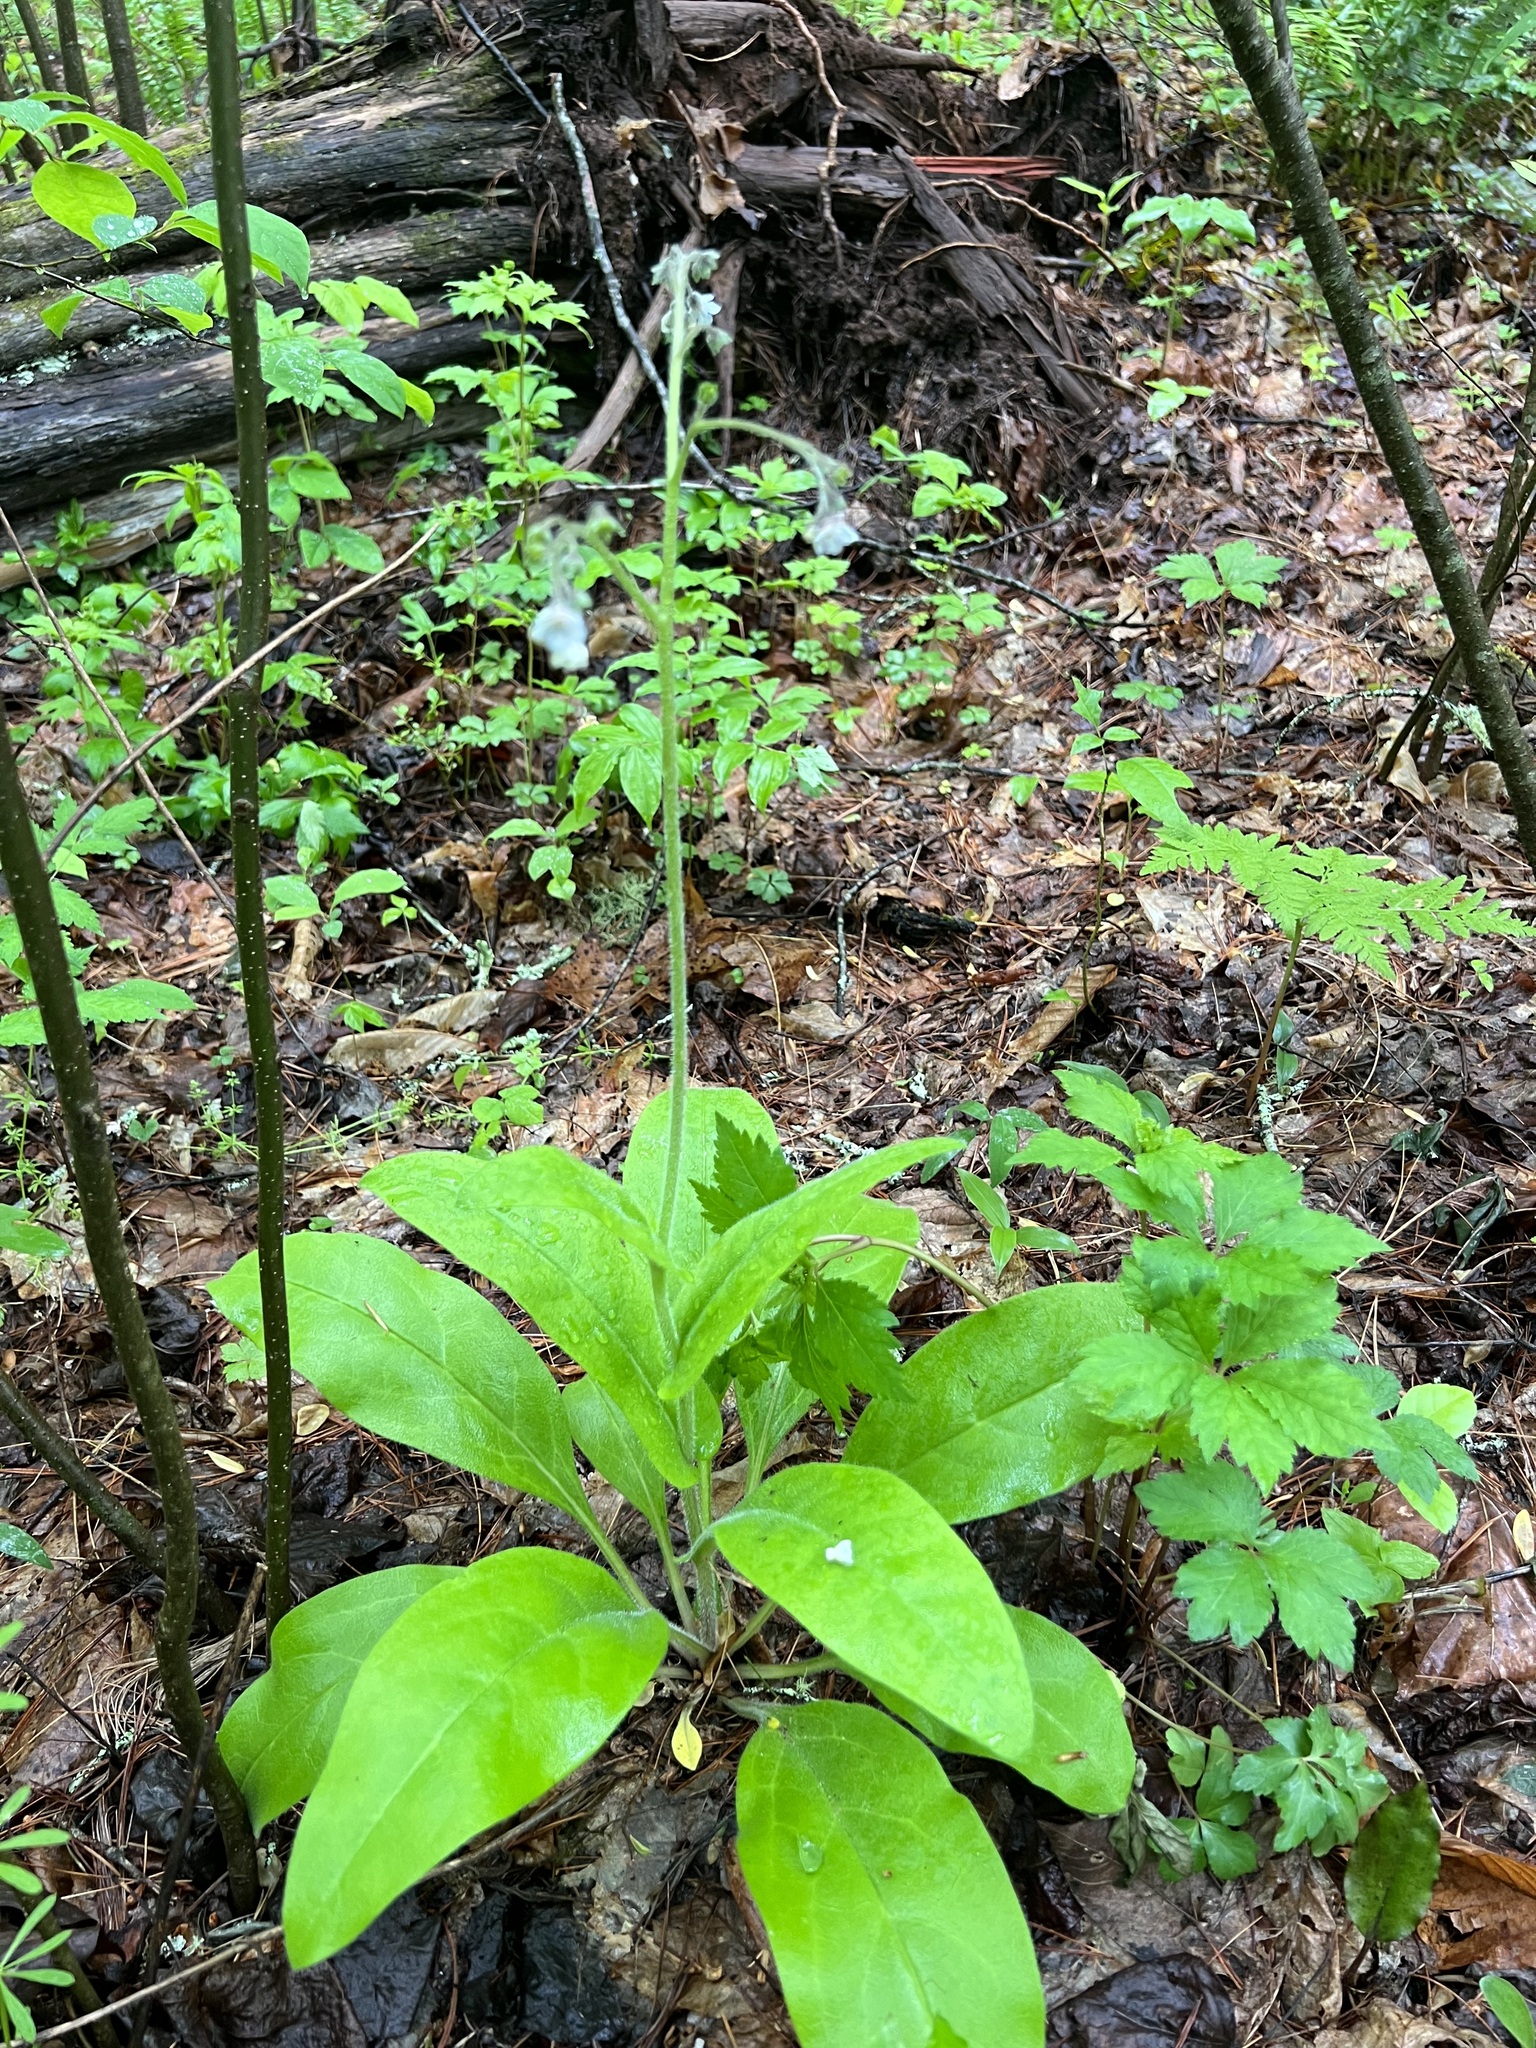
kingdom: Plantae
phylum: Tracheophyta
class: Magnoliopsida
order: Boraginales
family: Boraginaceae
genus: Andersonglossum
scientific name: Andersonglossum virginianum
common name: Wild comfrey
